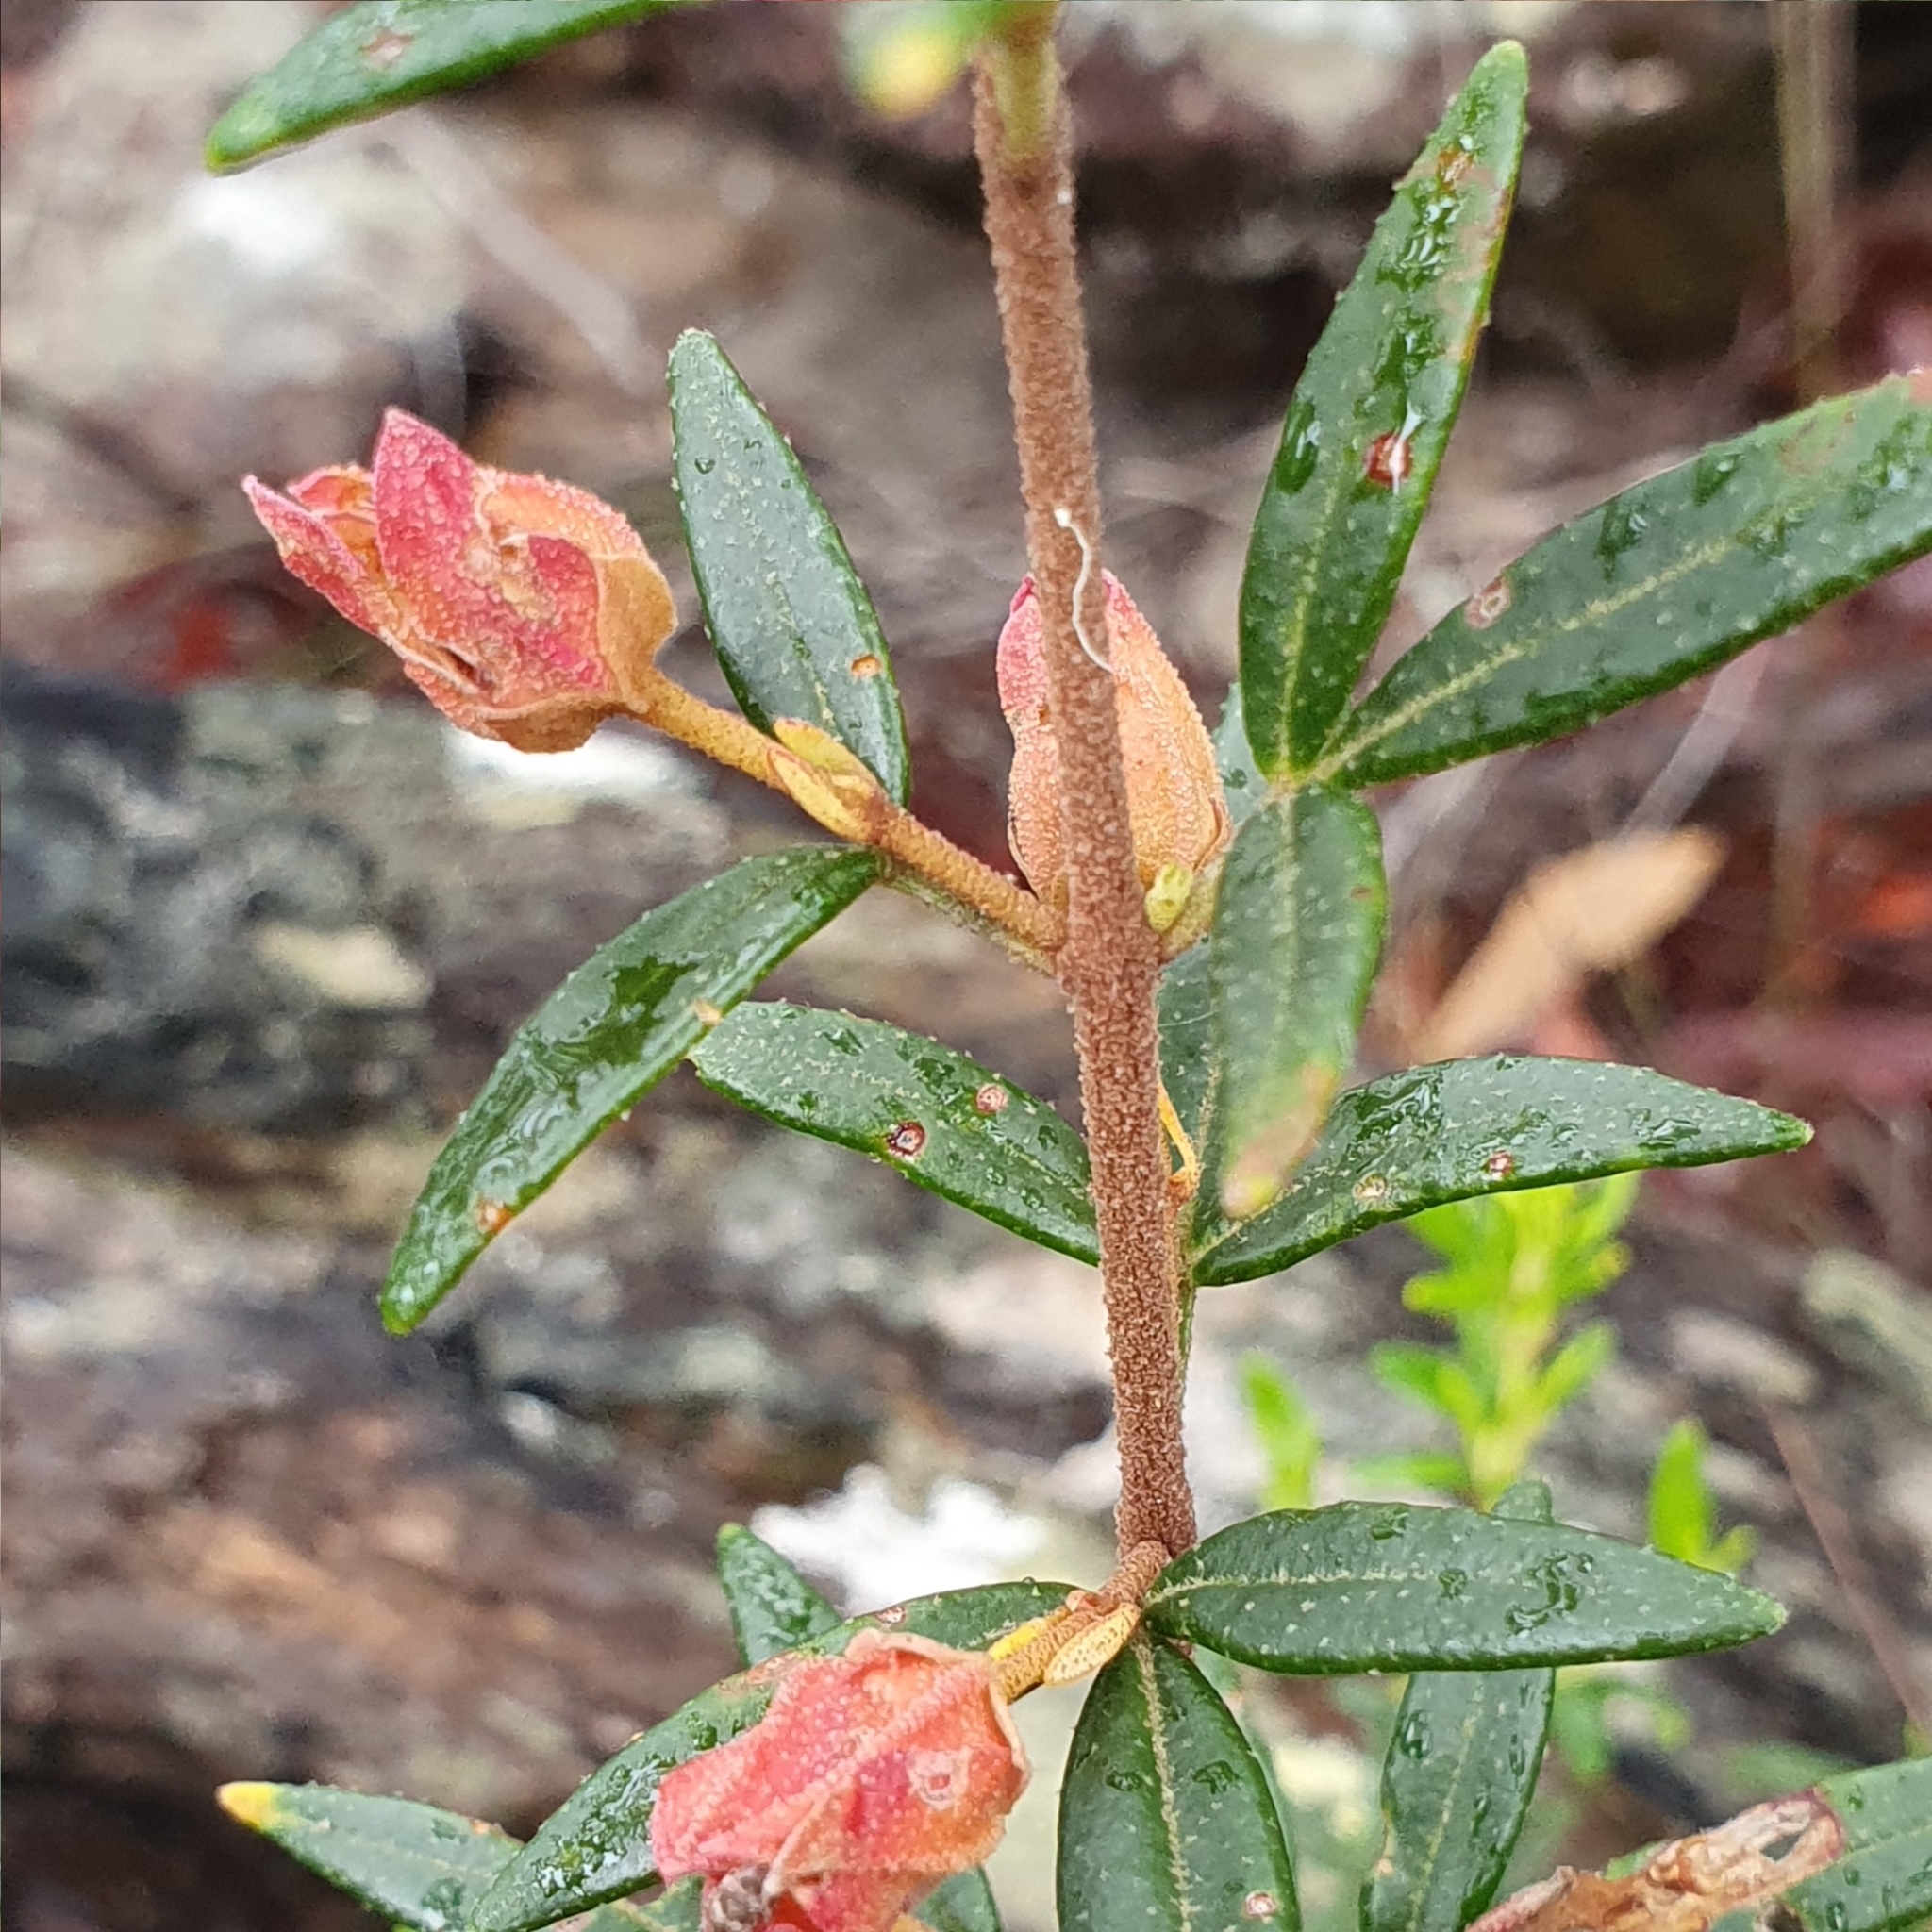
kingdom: Plantae
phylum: Tracheophyta
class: Magnoliopsida
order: Sapindales
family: Rutaceae
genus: Boronia
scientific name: Boronia ledifolia
